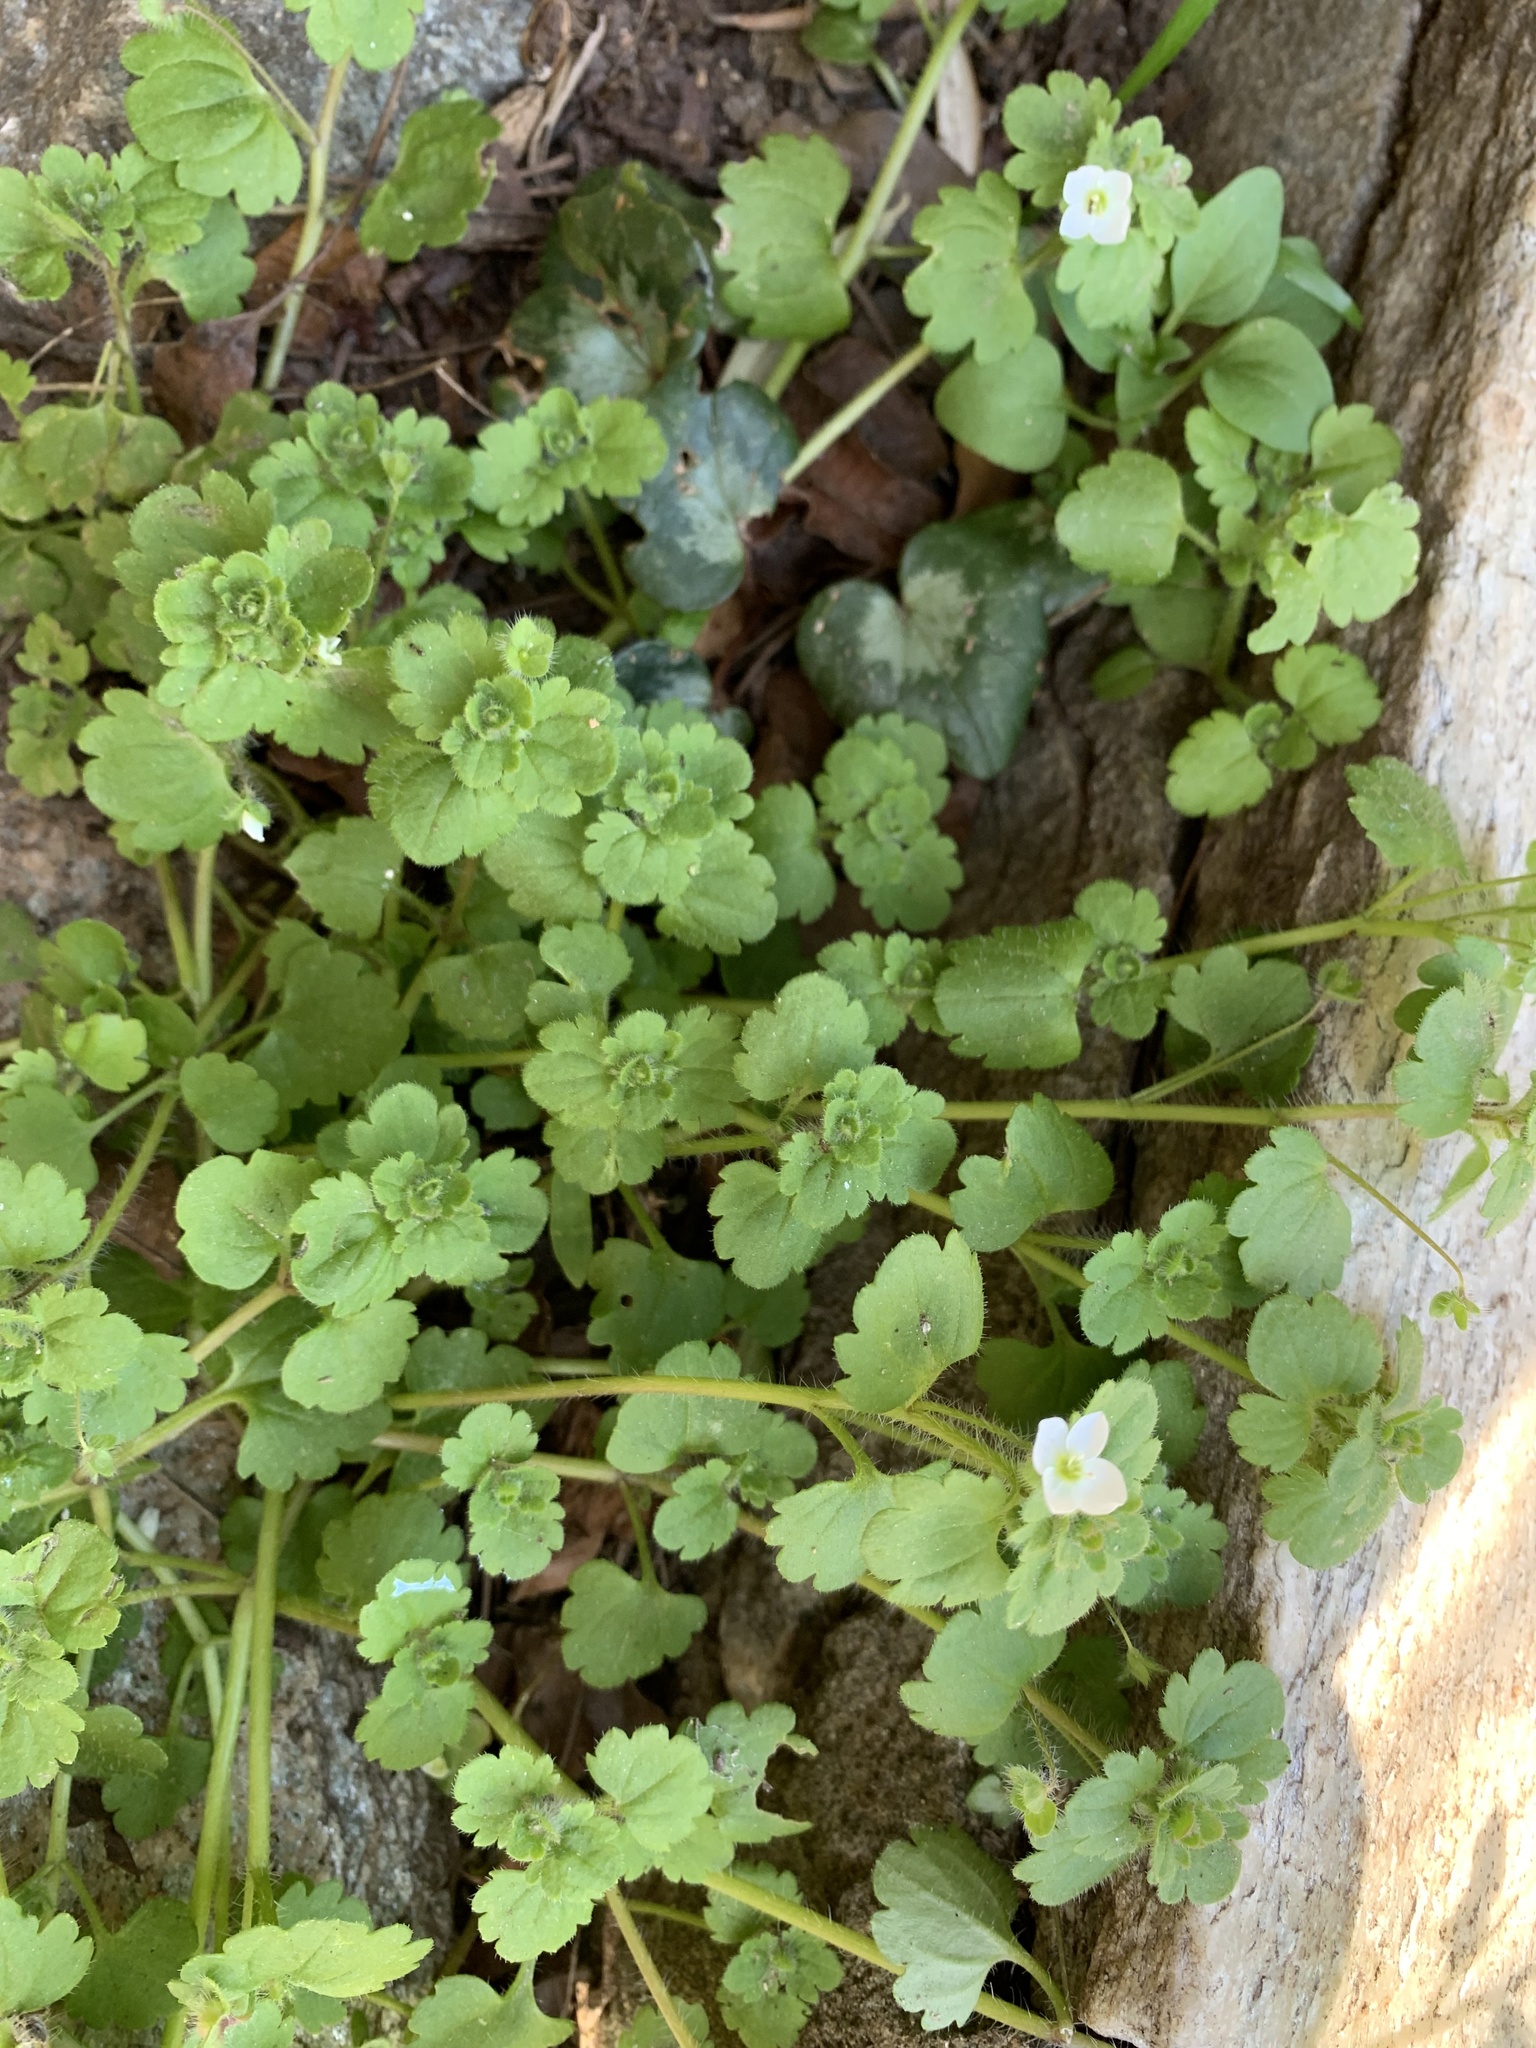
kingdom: Plantae
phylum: Tracheophyta
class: Magnoliopsida
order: Lamiales
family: Plantaginaceae
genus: Veronica
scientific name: Veronica cymbalaria
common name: Pale speedwell
